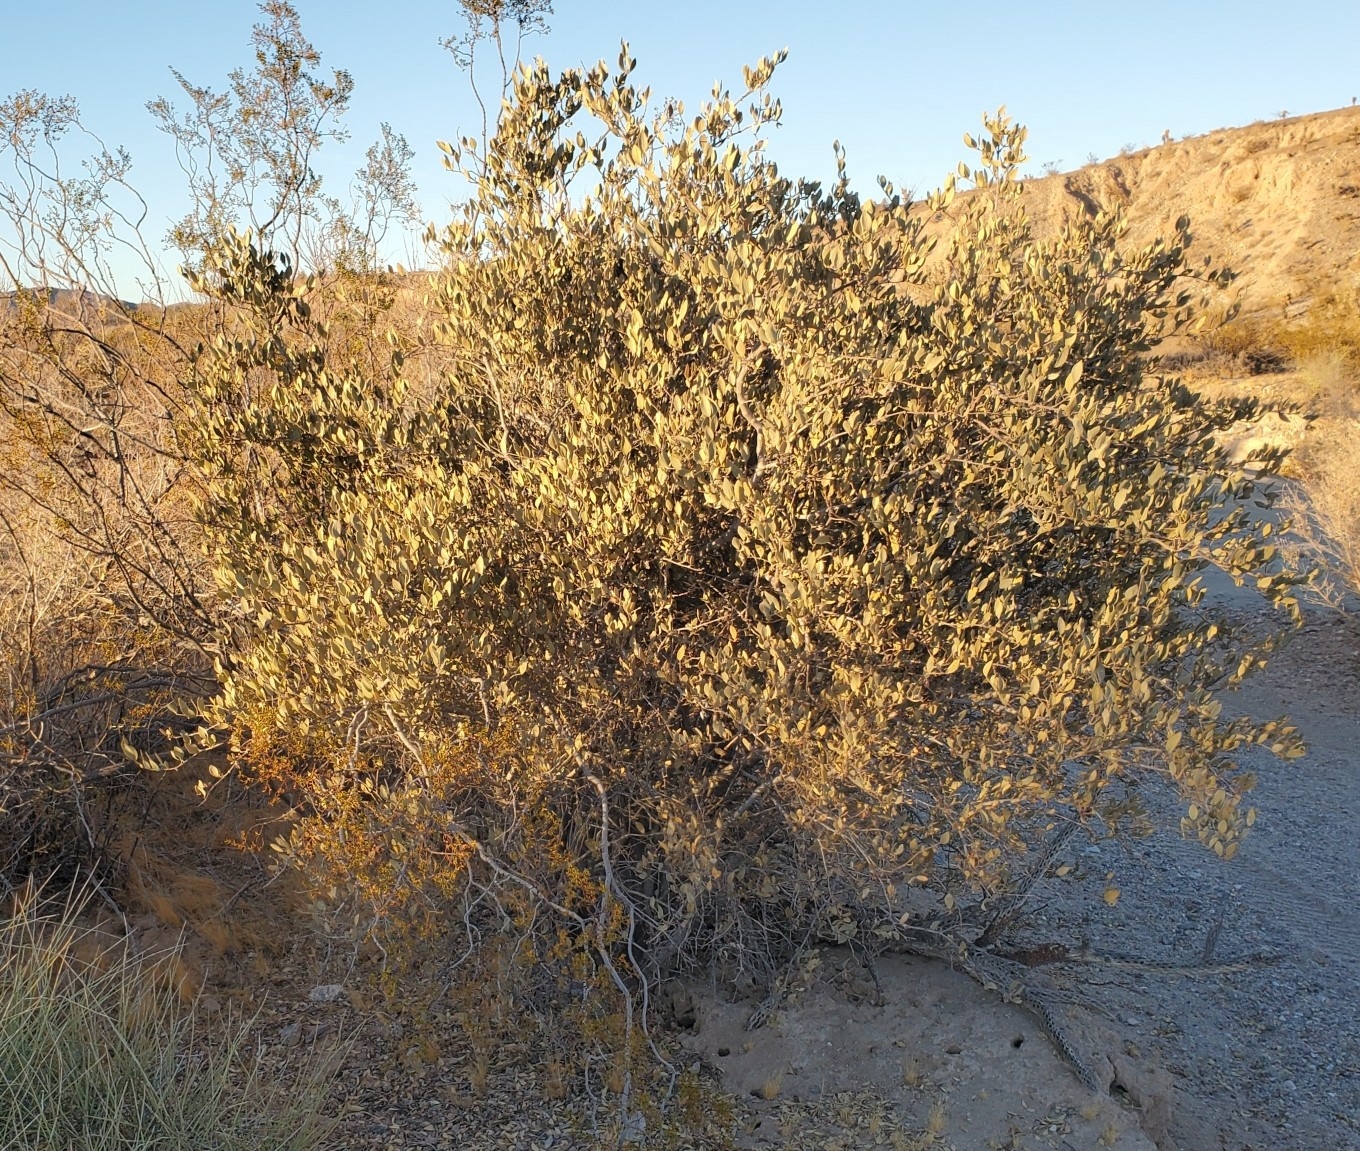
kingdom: Plantae
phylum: Tracheophyta
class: Magnoliopsida
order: Caryophyllales
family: Simmondsiaceae
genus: Simmondsia
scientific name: Simmondsia chinensis
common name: Jojoba
